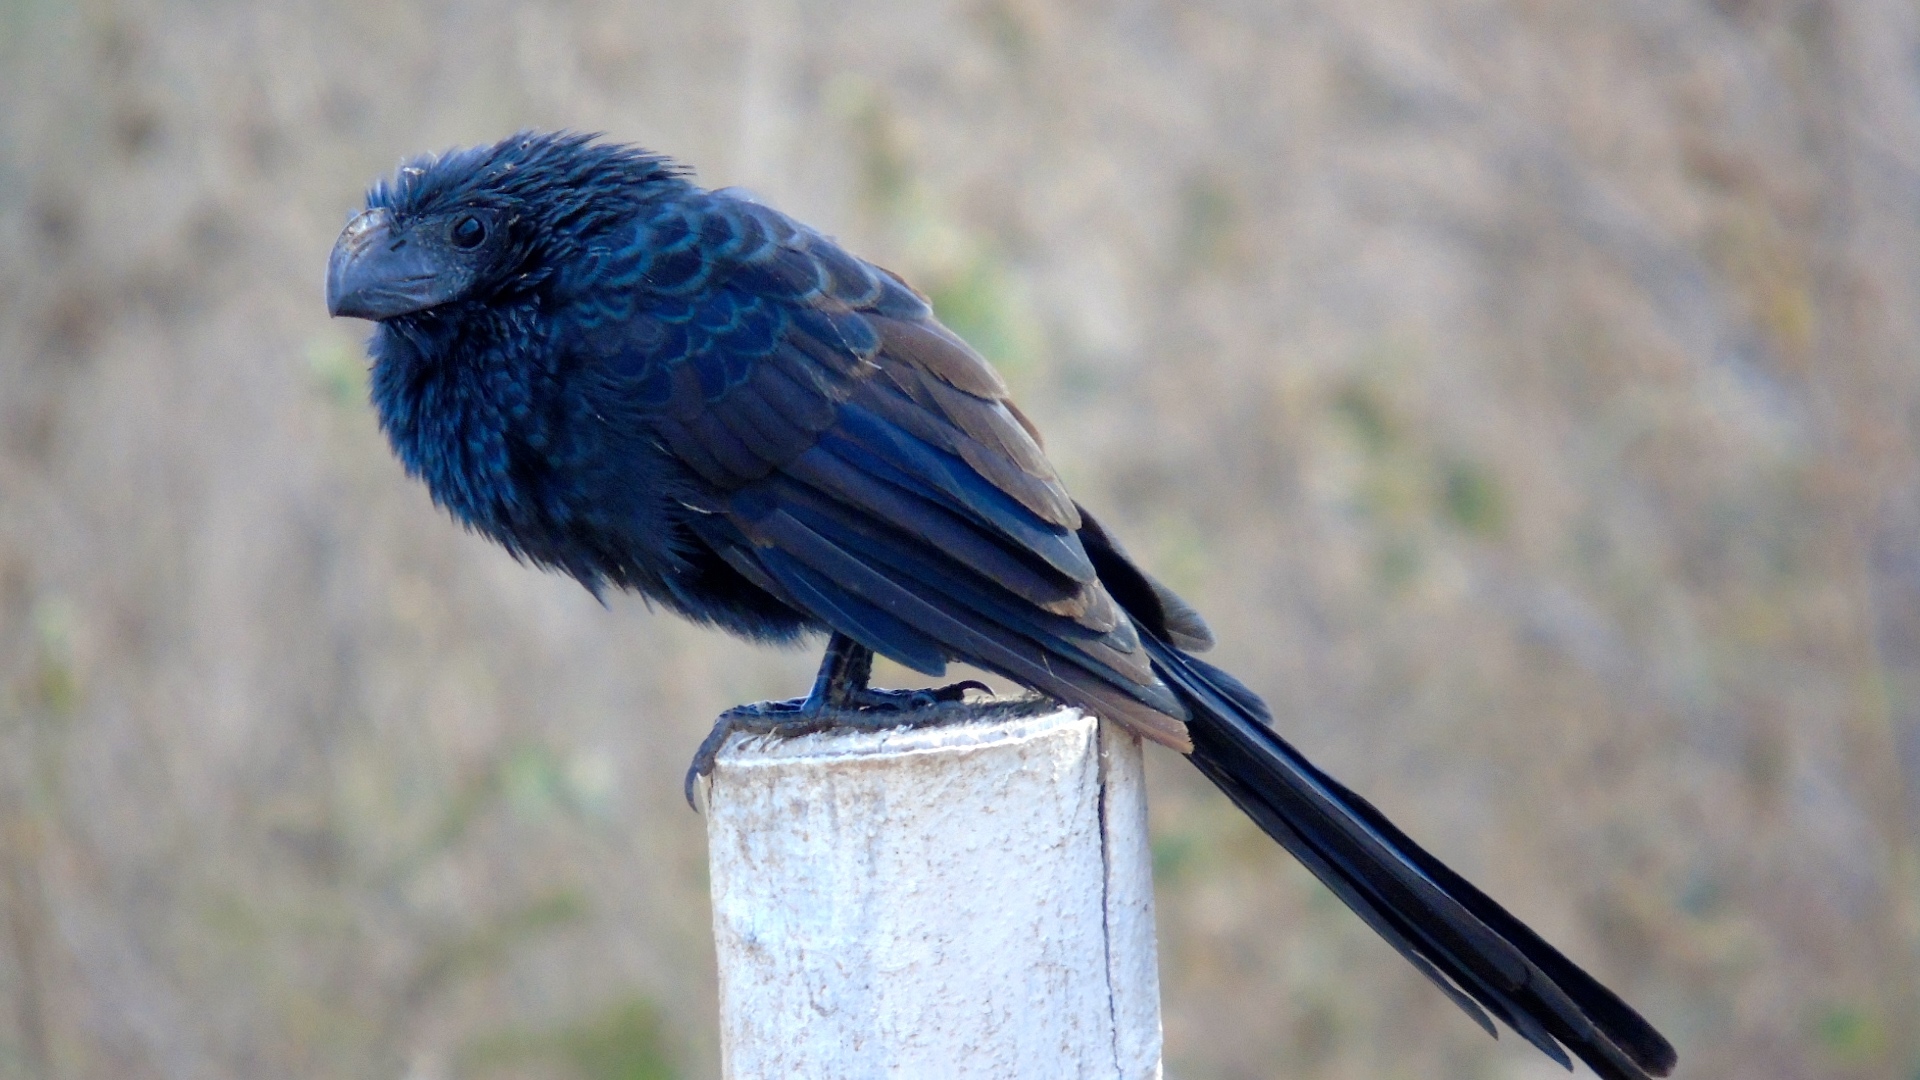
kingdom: Animalia
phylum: Chordata
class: Aves
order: Cuculiformes
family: Cuculidae
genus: Crotophaga
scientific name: Crotophaga sulcirostris
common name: Groove-billed ani
